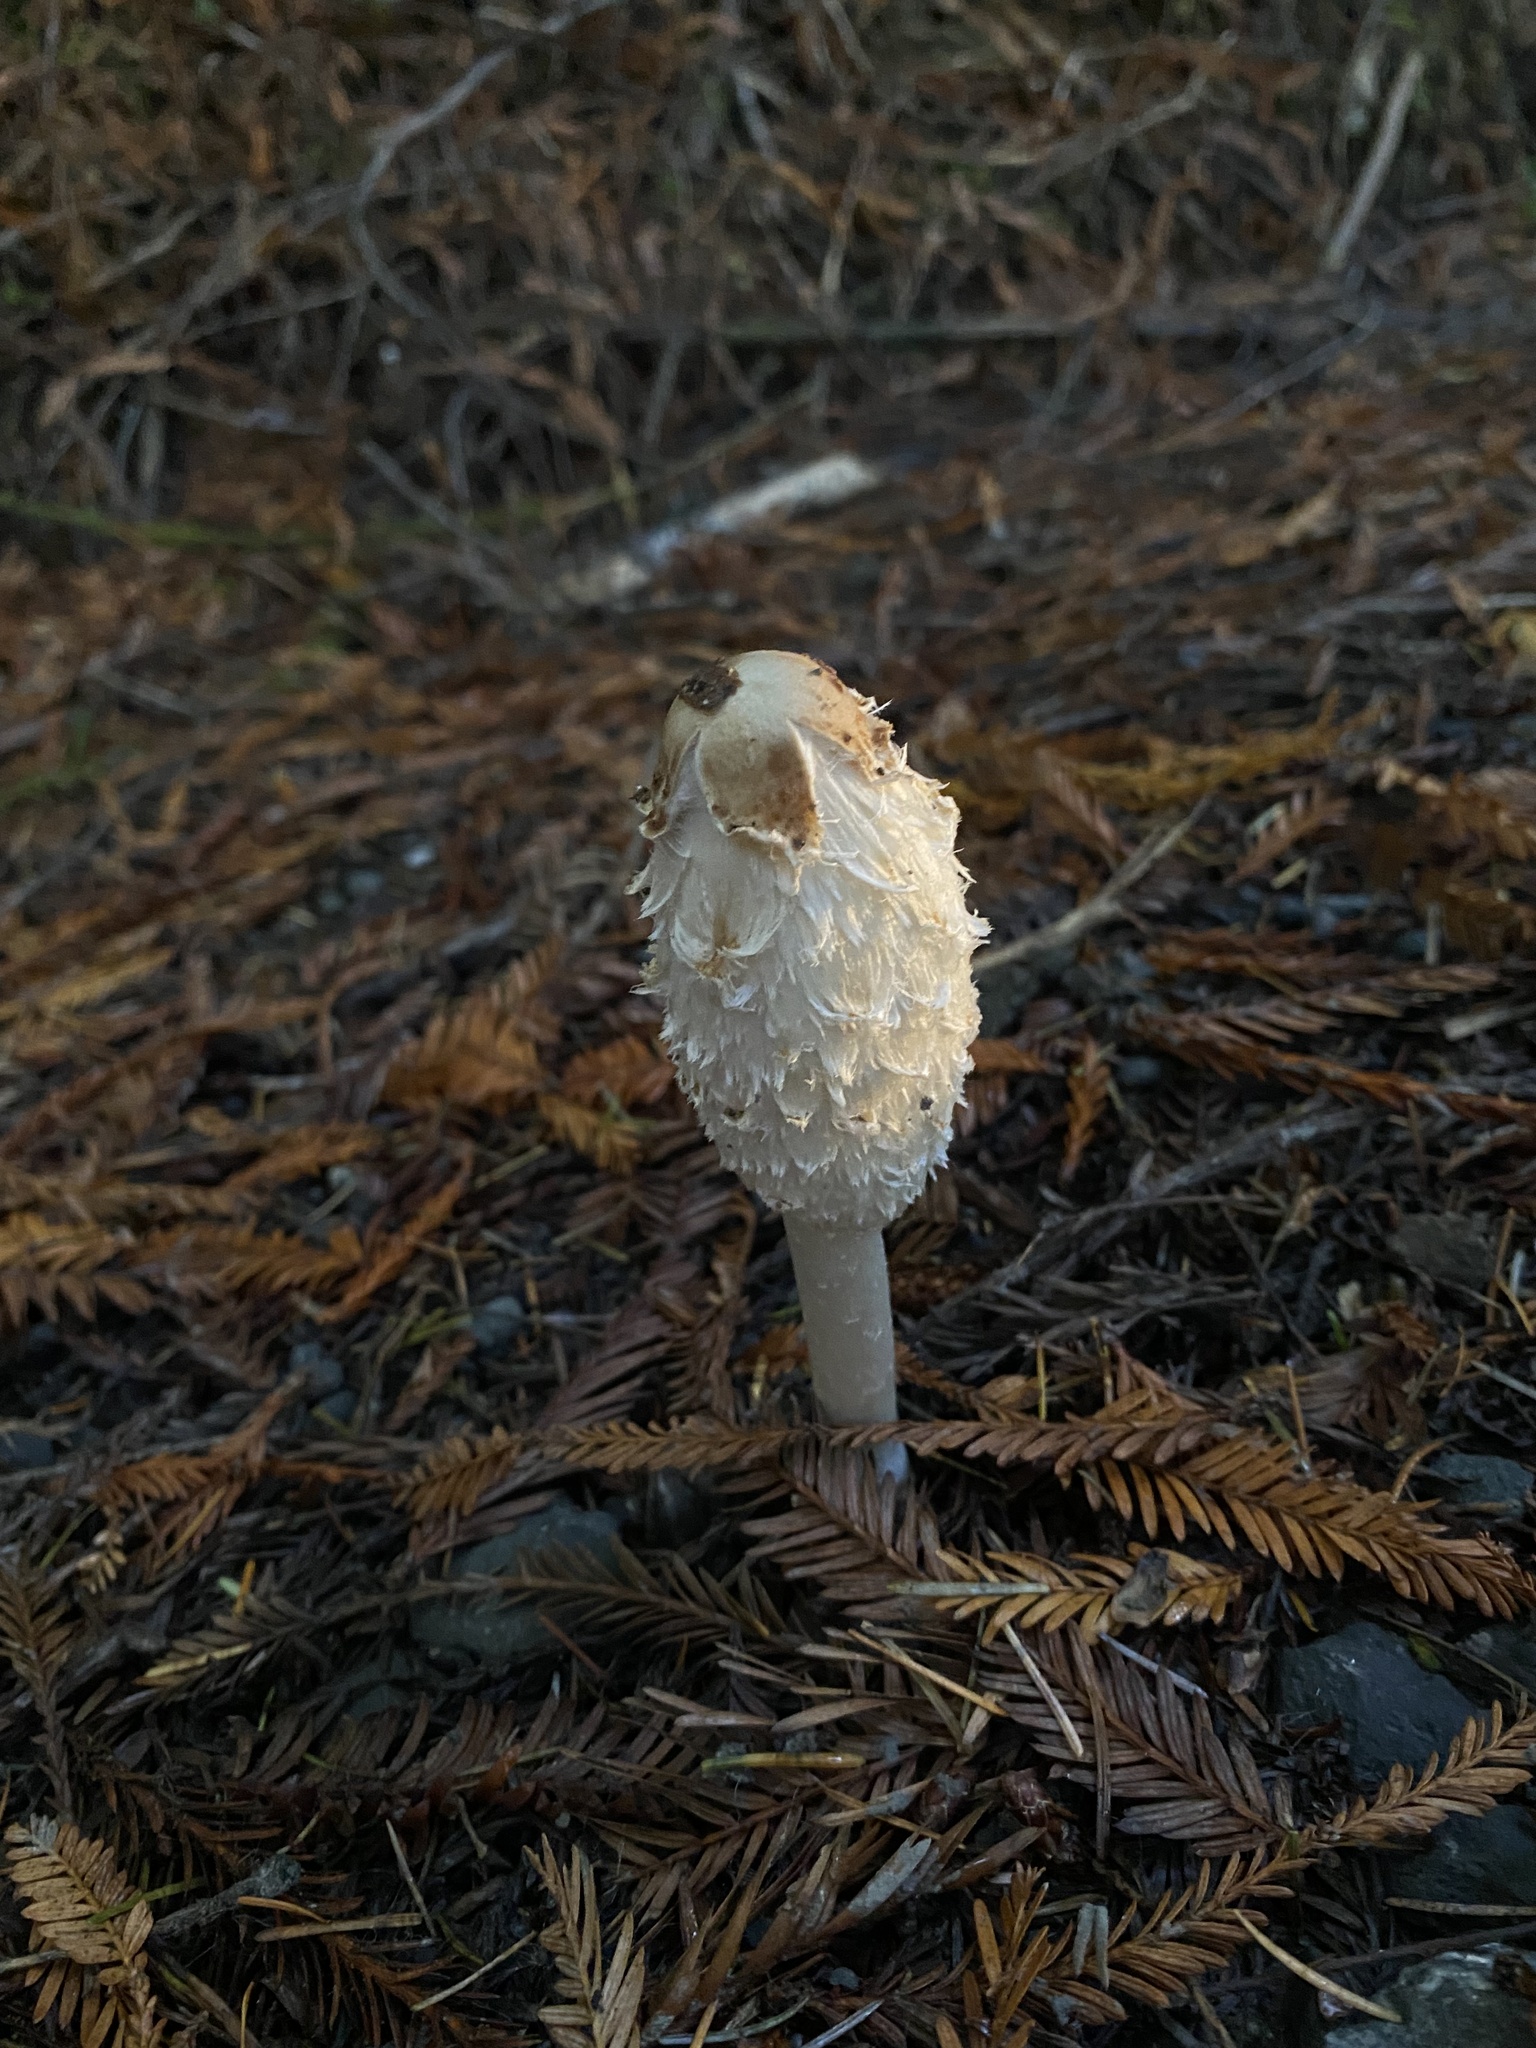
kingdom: Fungi
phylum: Basidiomycota
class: Agaricomycetes
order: Agaricales
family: Agaricaceae
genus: Coprinus
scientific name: Coprinus comatus
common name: Lawyer's wig
